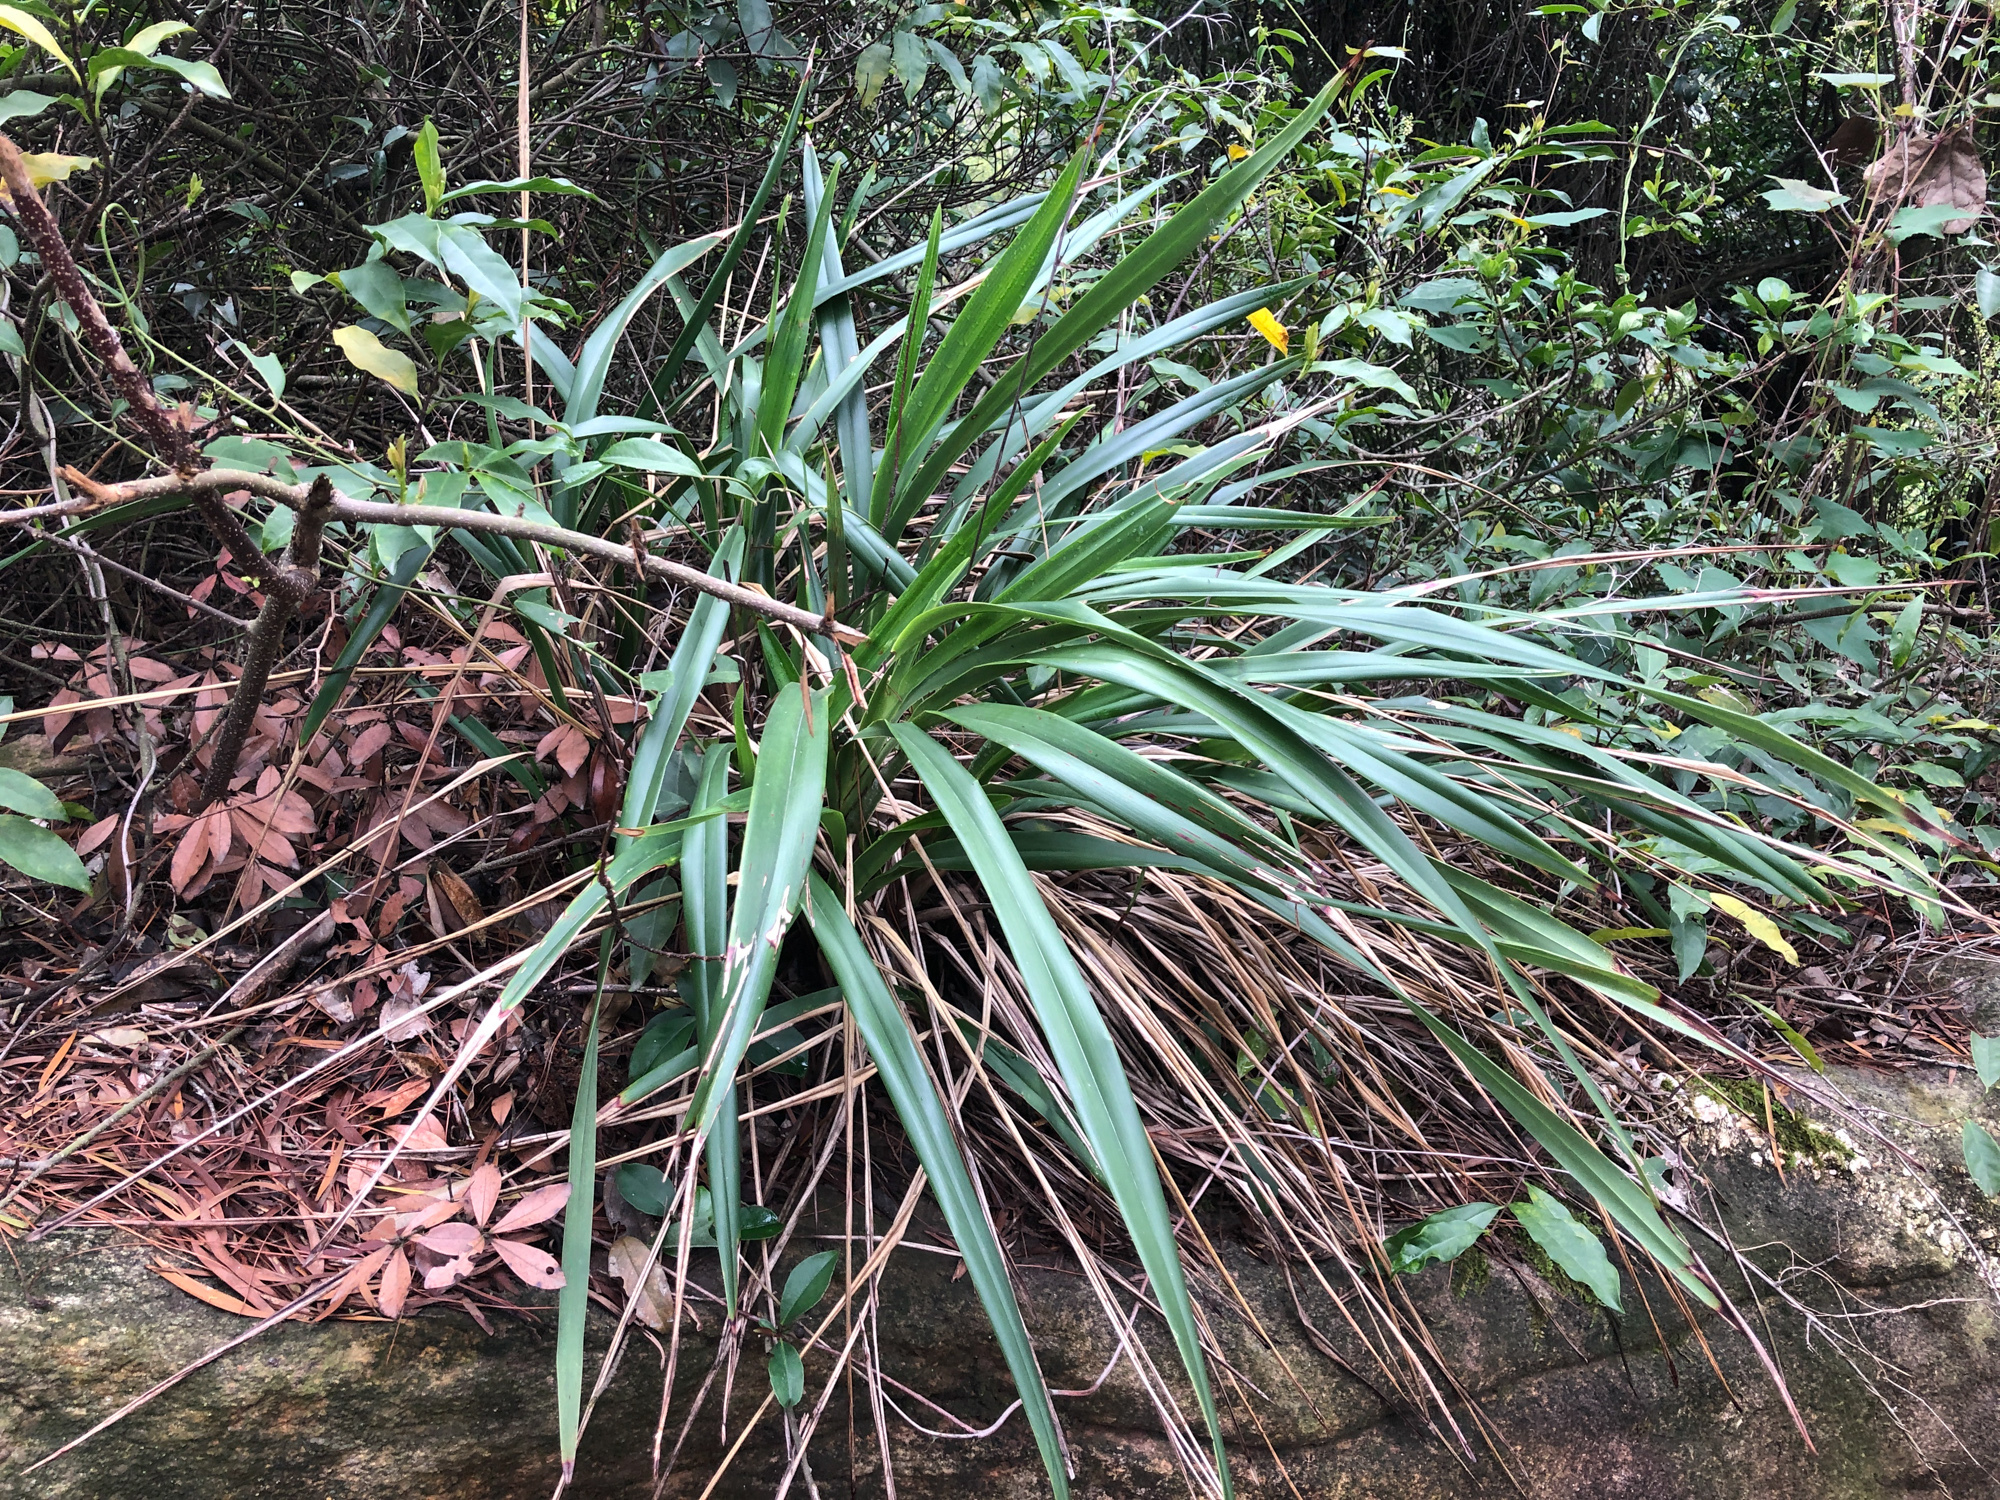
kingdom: Plantae
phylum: Tracheophyta
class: Liliopsida
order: Asparagales
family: Asphodelaceae
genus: Dianella
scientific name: Dianella ensifolia
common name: New zealand lilyplant
